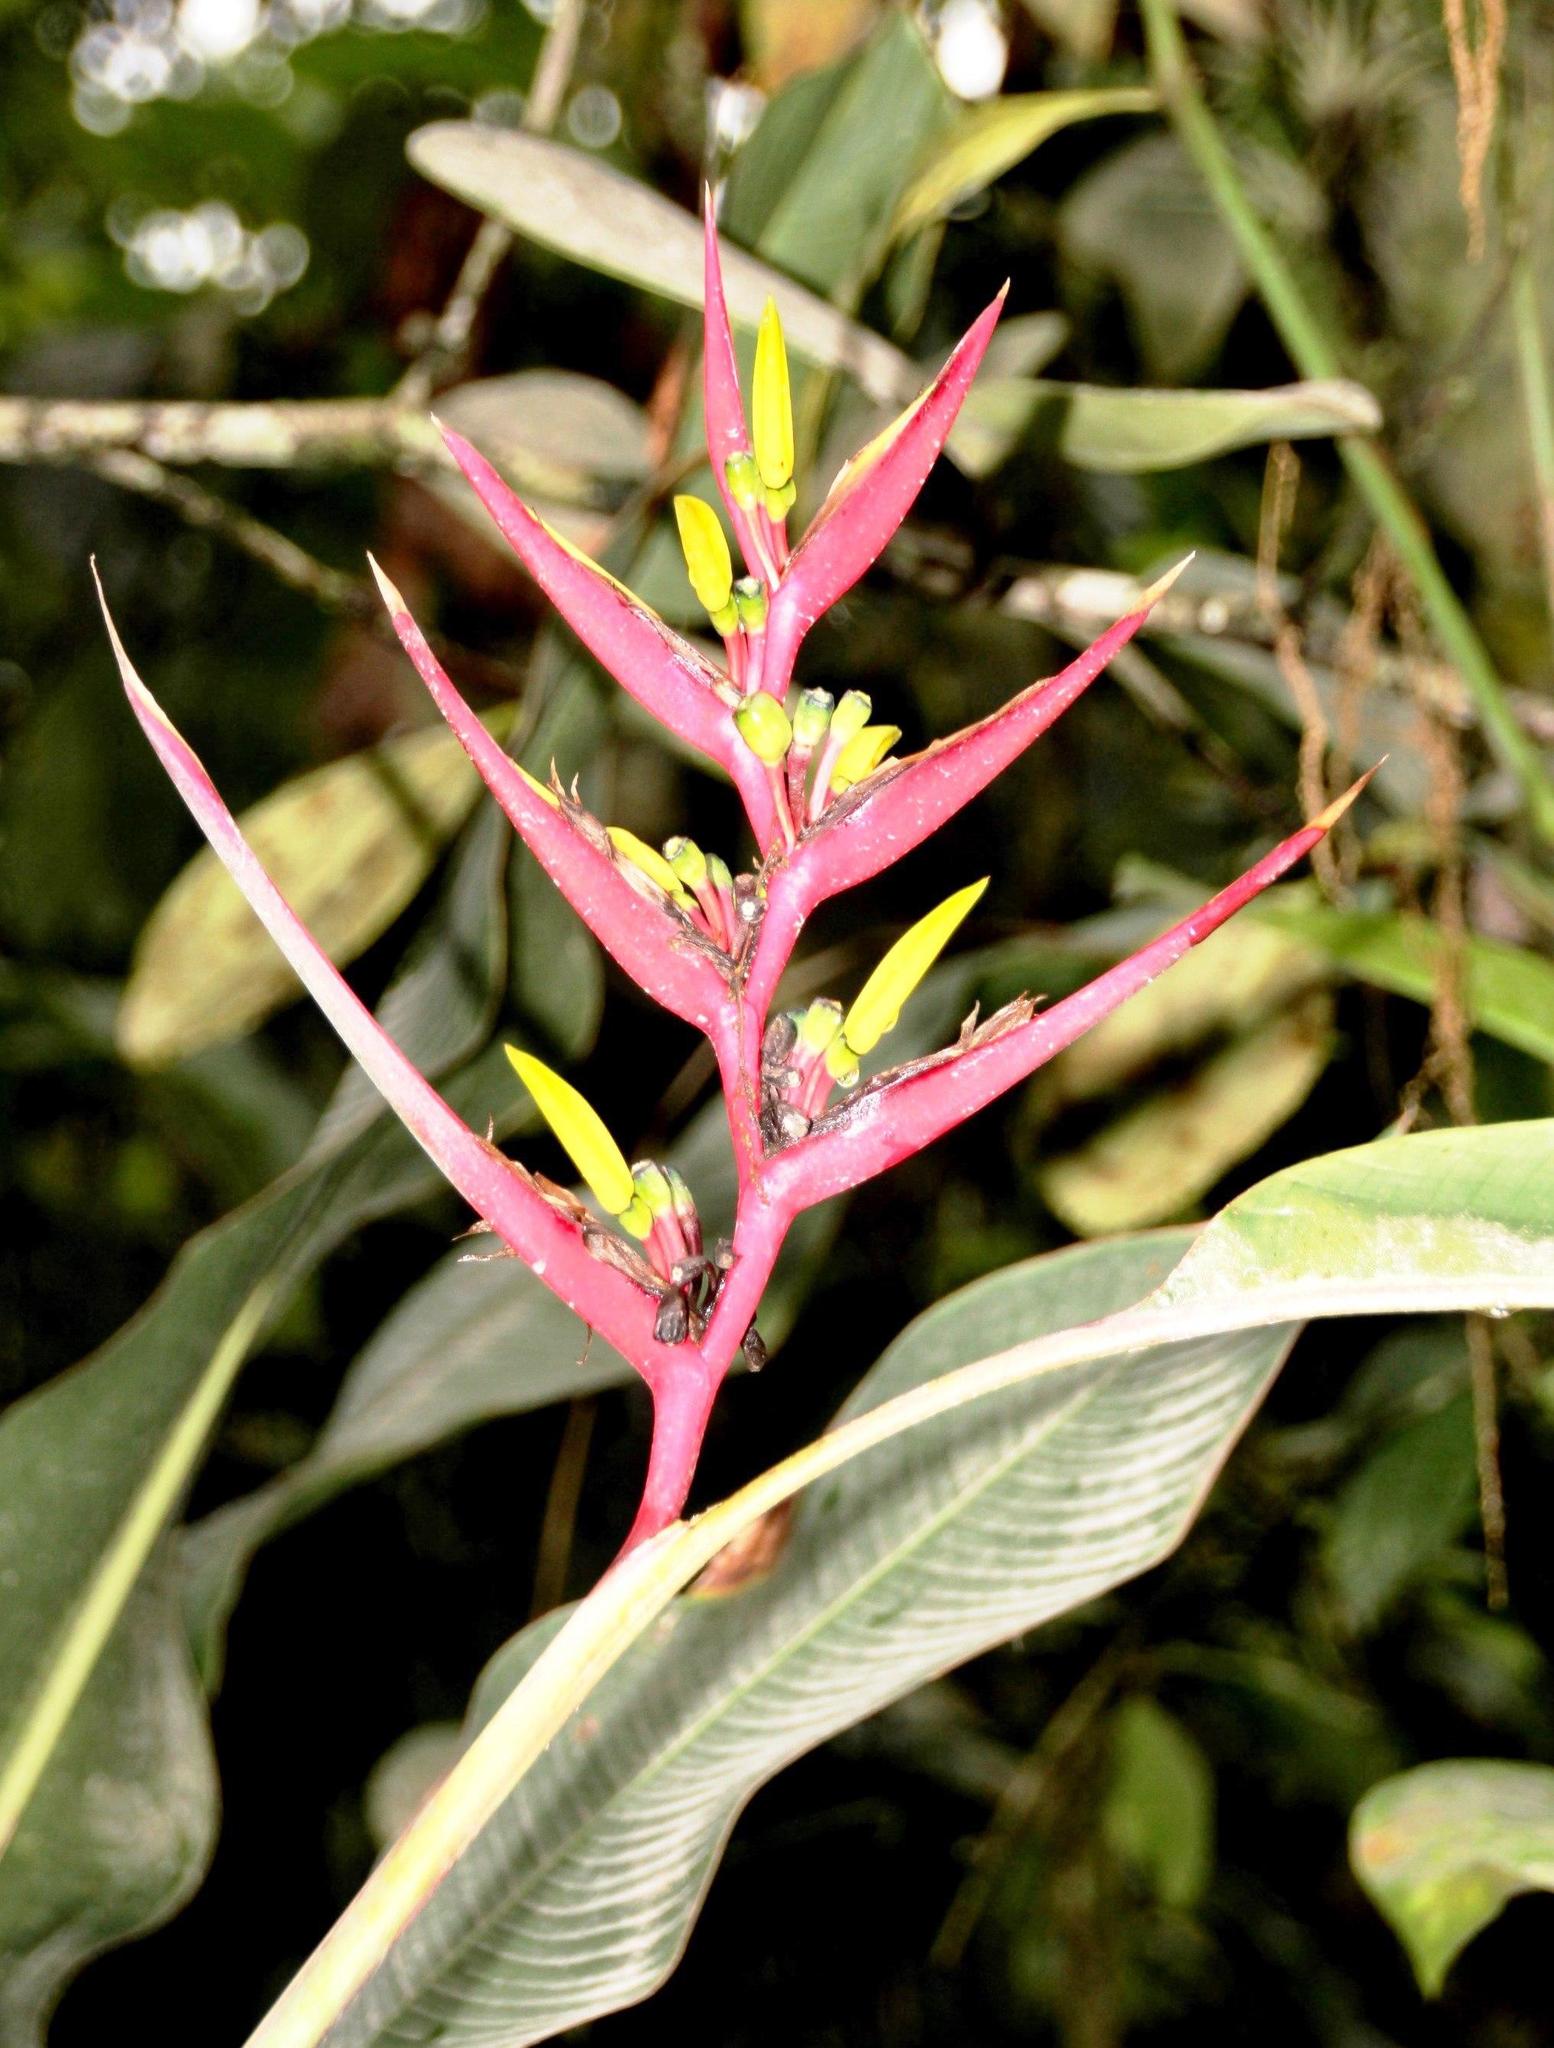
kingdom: Plantae
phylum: Tracheophyta
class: Liliopsida
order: Zingiberales
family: Heliconiaceae
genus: Heliconia
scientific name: Heliconia subulata
